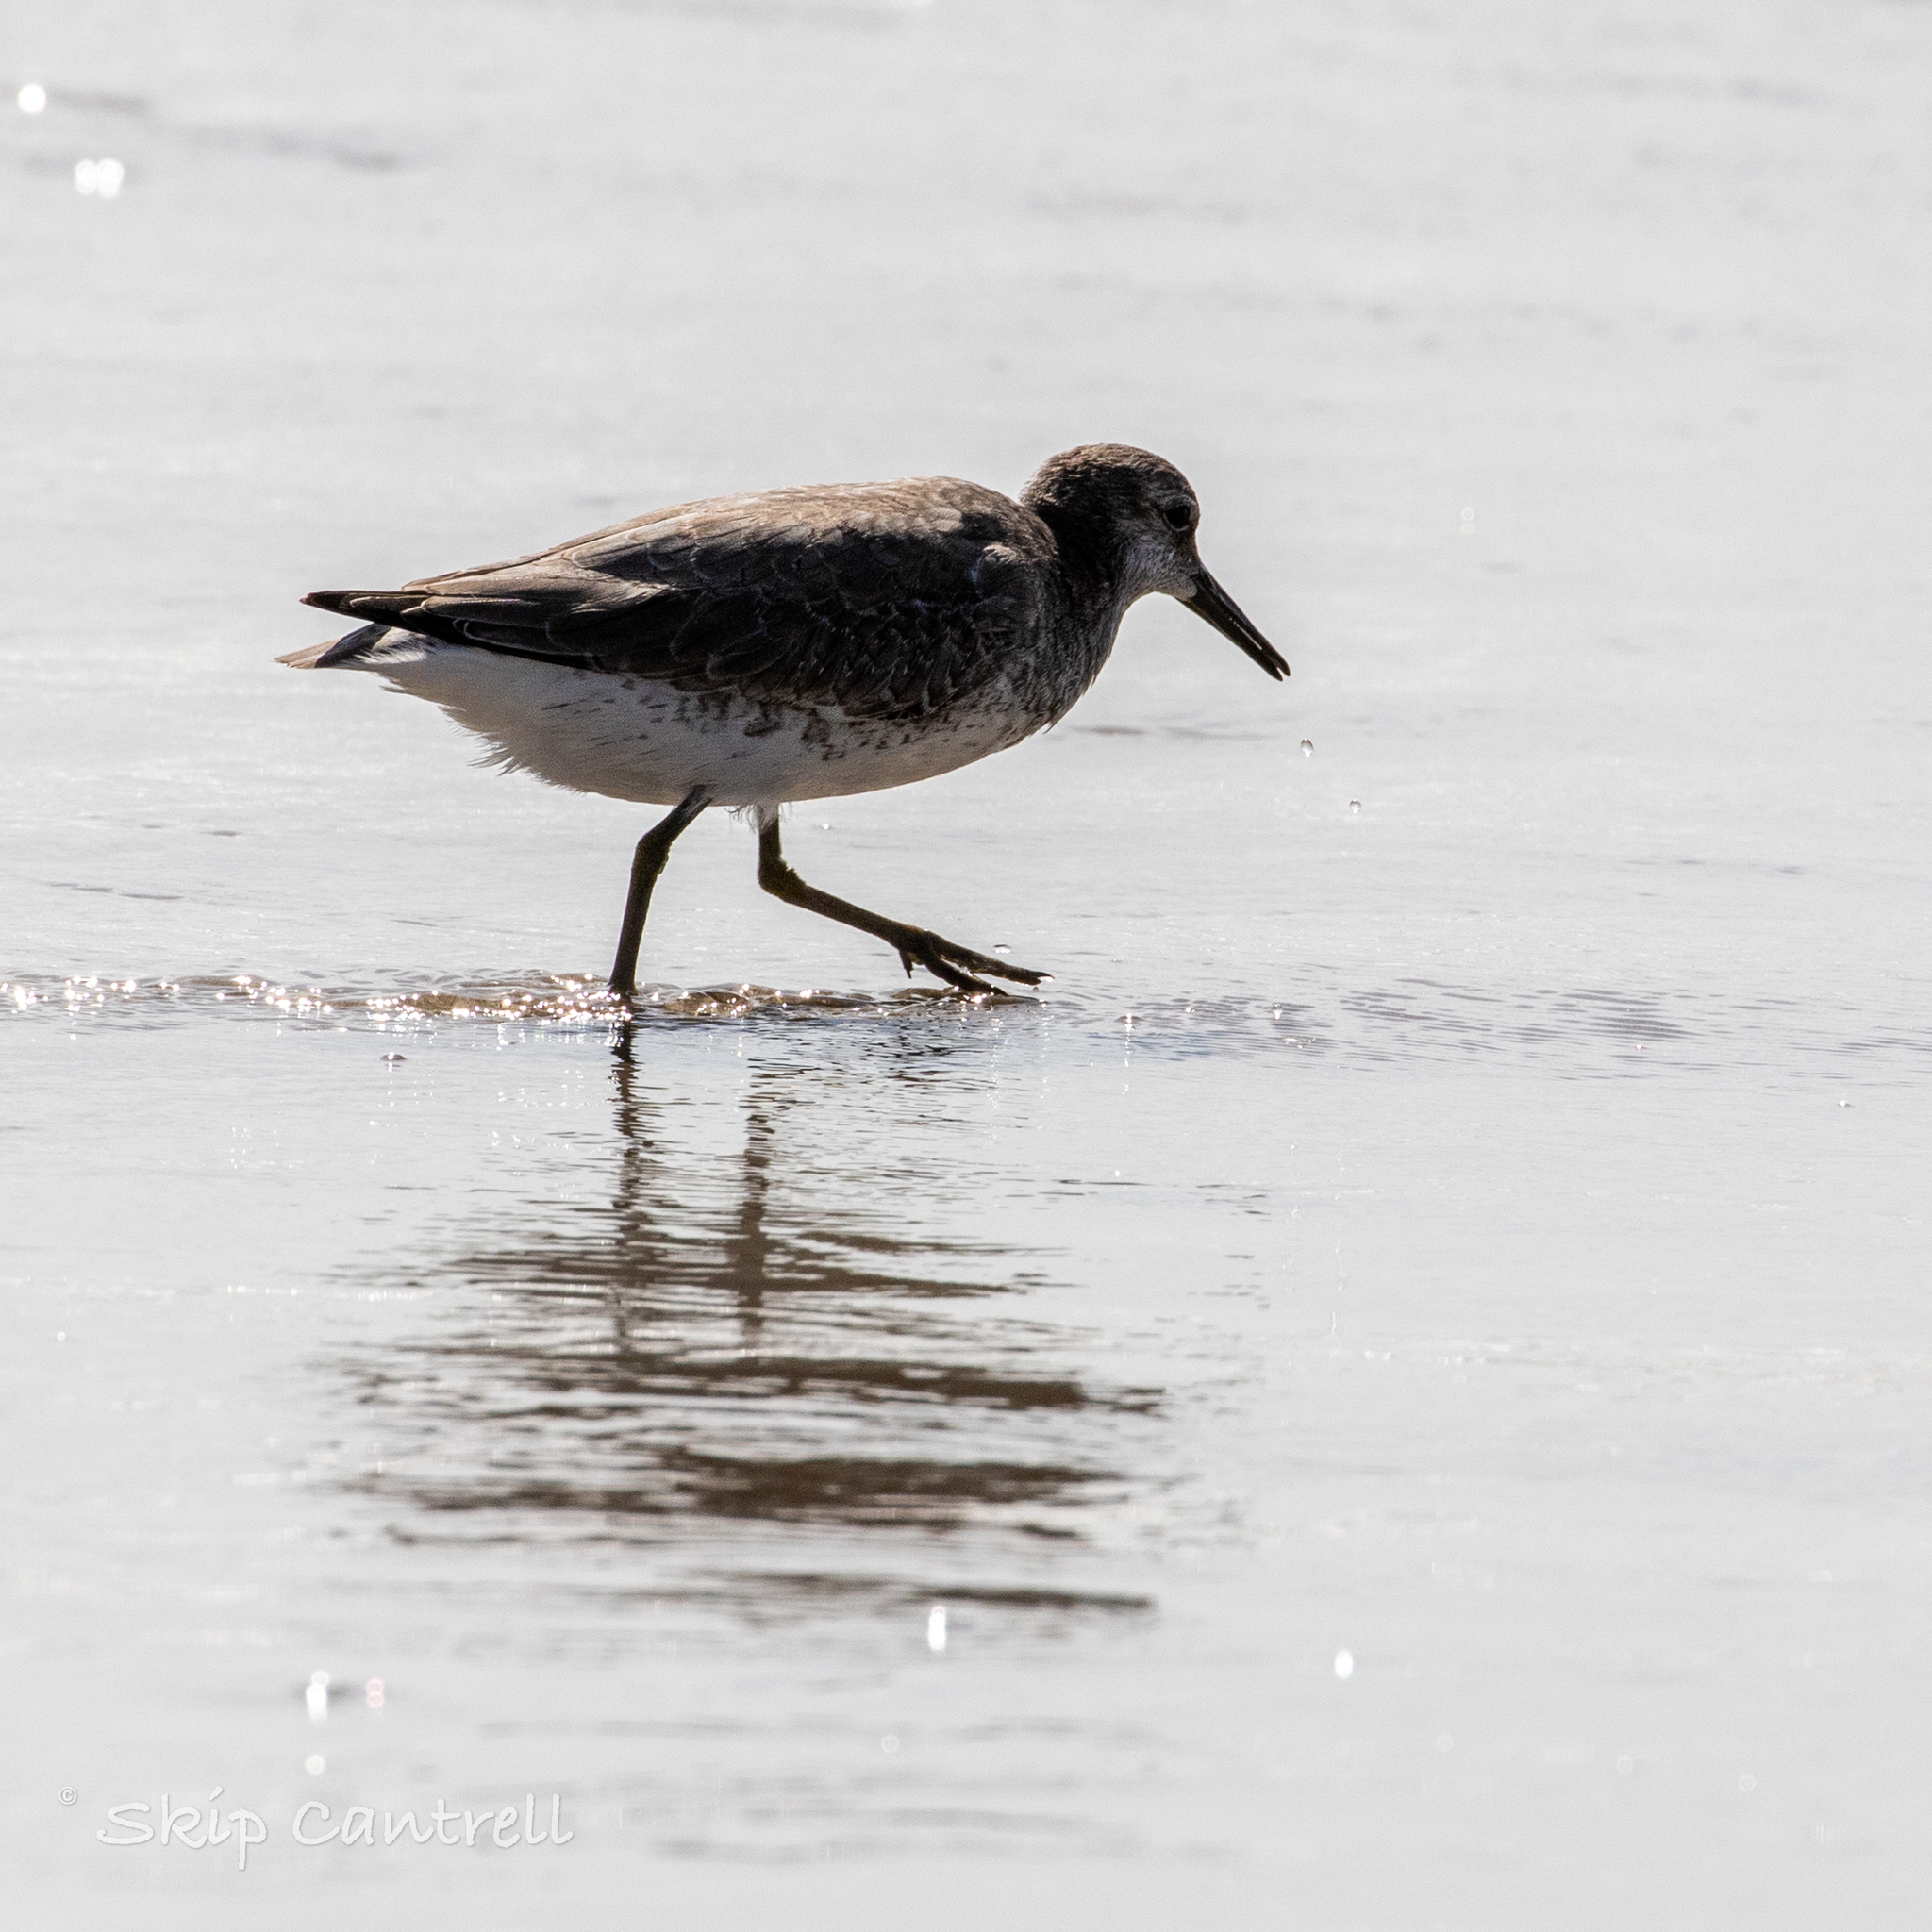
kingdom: Animalia
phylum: Chordata
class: Aves
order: Charadriiformes
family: Scolopacidae
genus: Calidris
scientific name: Calidris canutus
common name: Red knot
